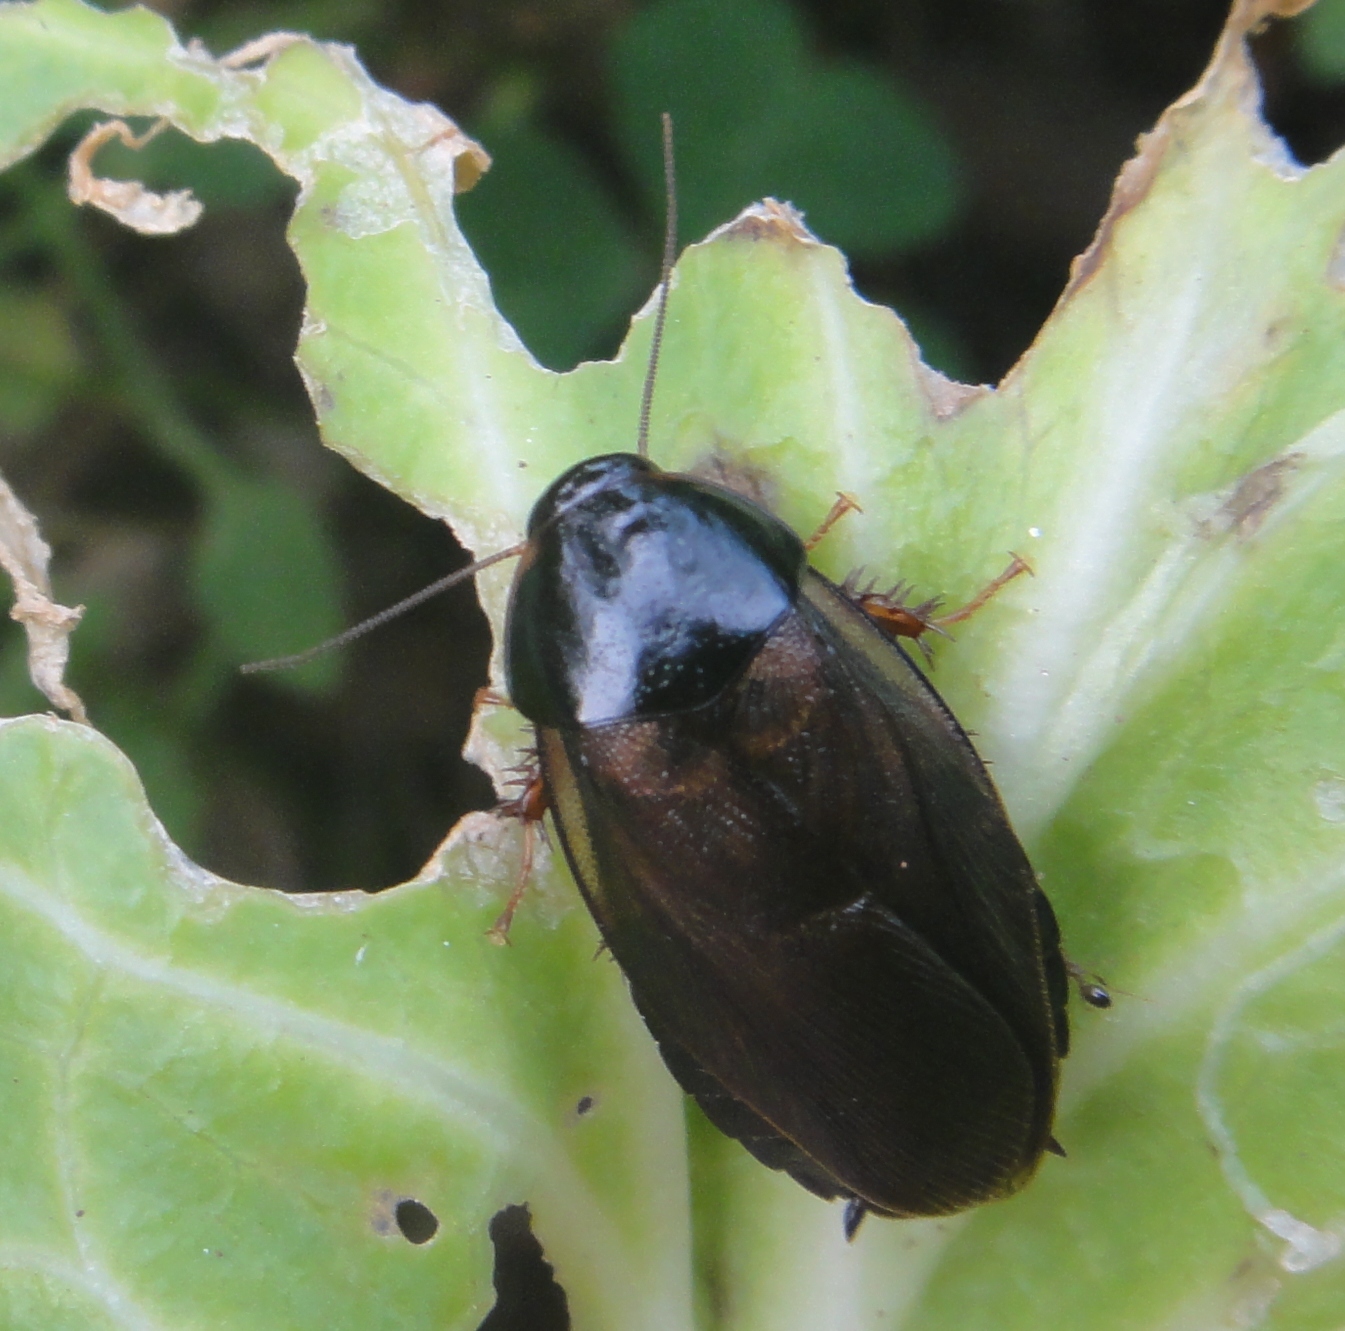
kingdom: Animalia
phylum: Arthropoda
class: Insecta
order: Blattodea
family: Blaberidae
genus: Pycnoscelus
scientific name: Pycnoscelus surinamensis
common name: Surinam cockroach
